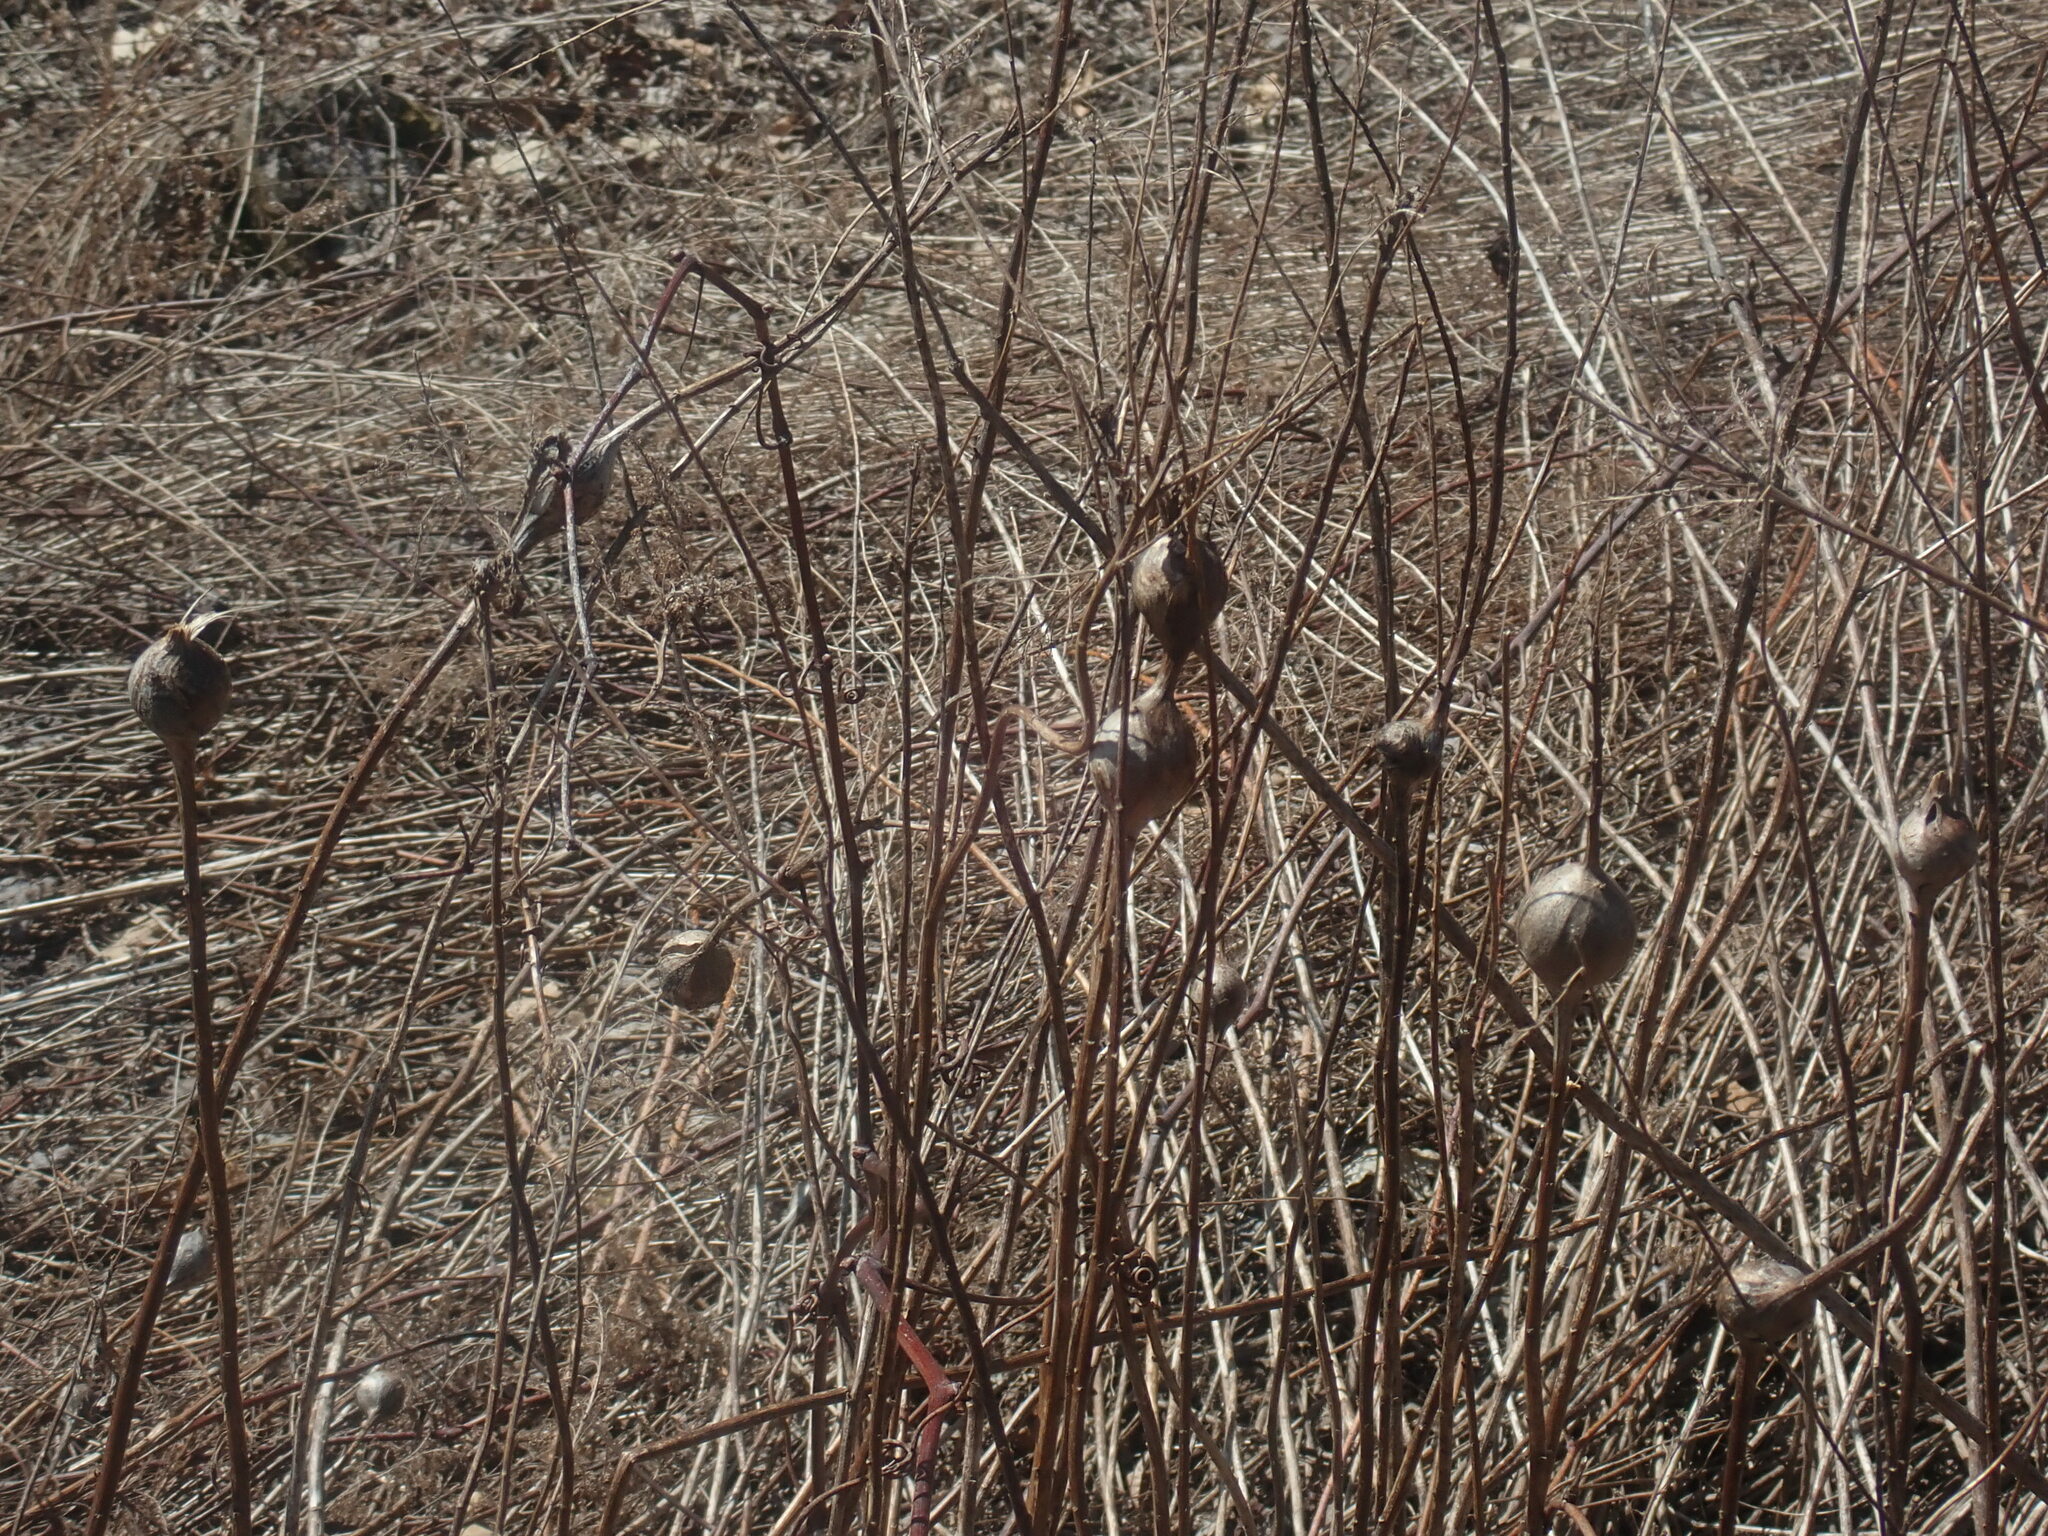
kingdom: Animalia
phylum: Arthropoda
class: Insecta
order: Diptera
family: Tephritidae
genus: Eurosta
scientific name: Eurosta solidaginis
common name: Goldenrod gall fly
